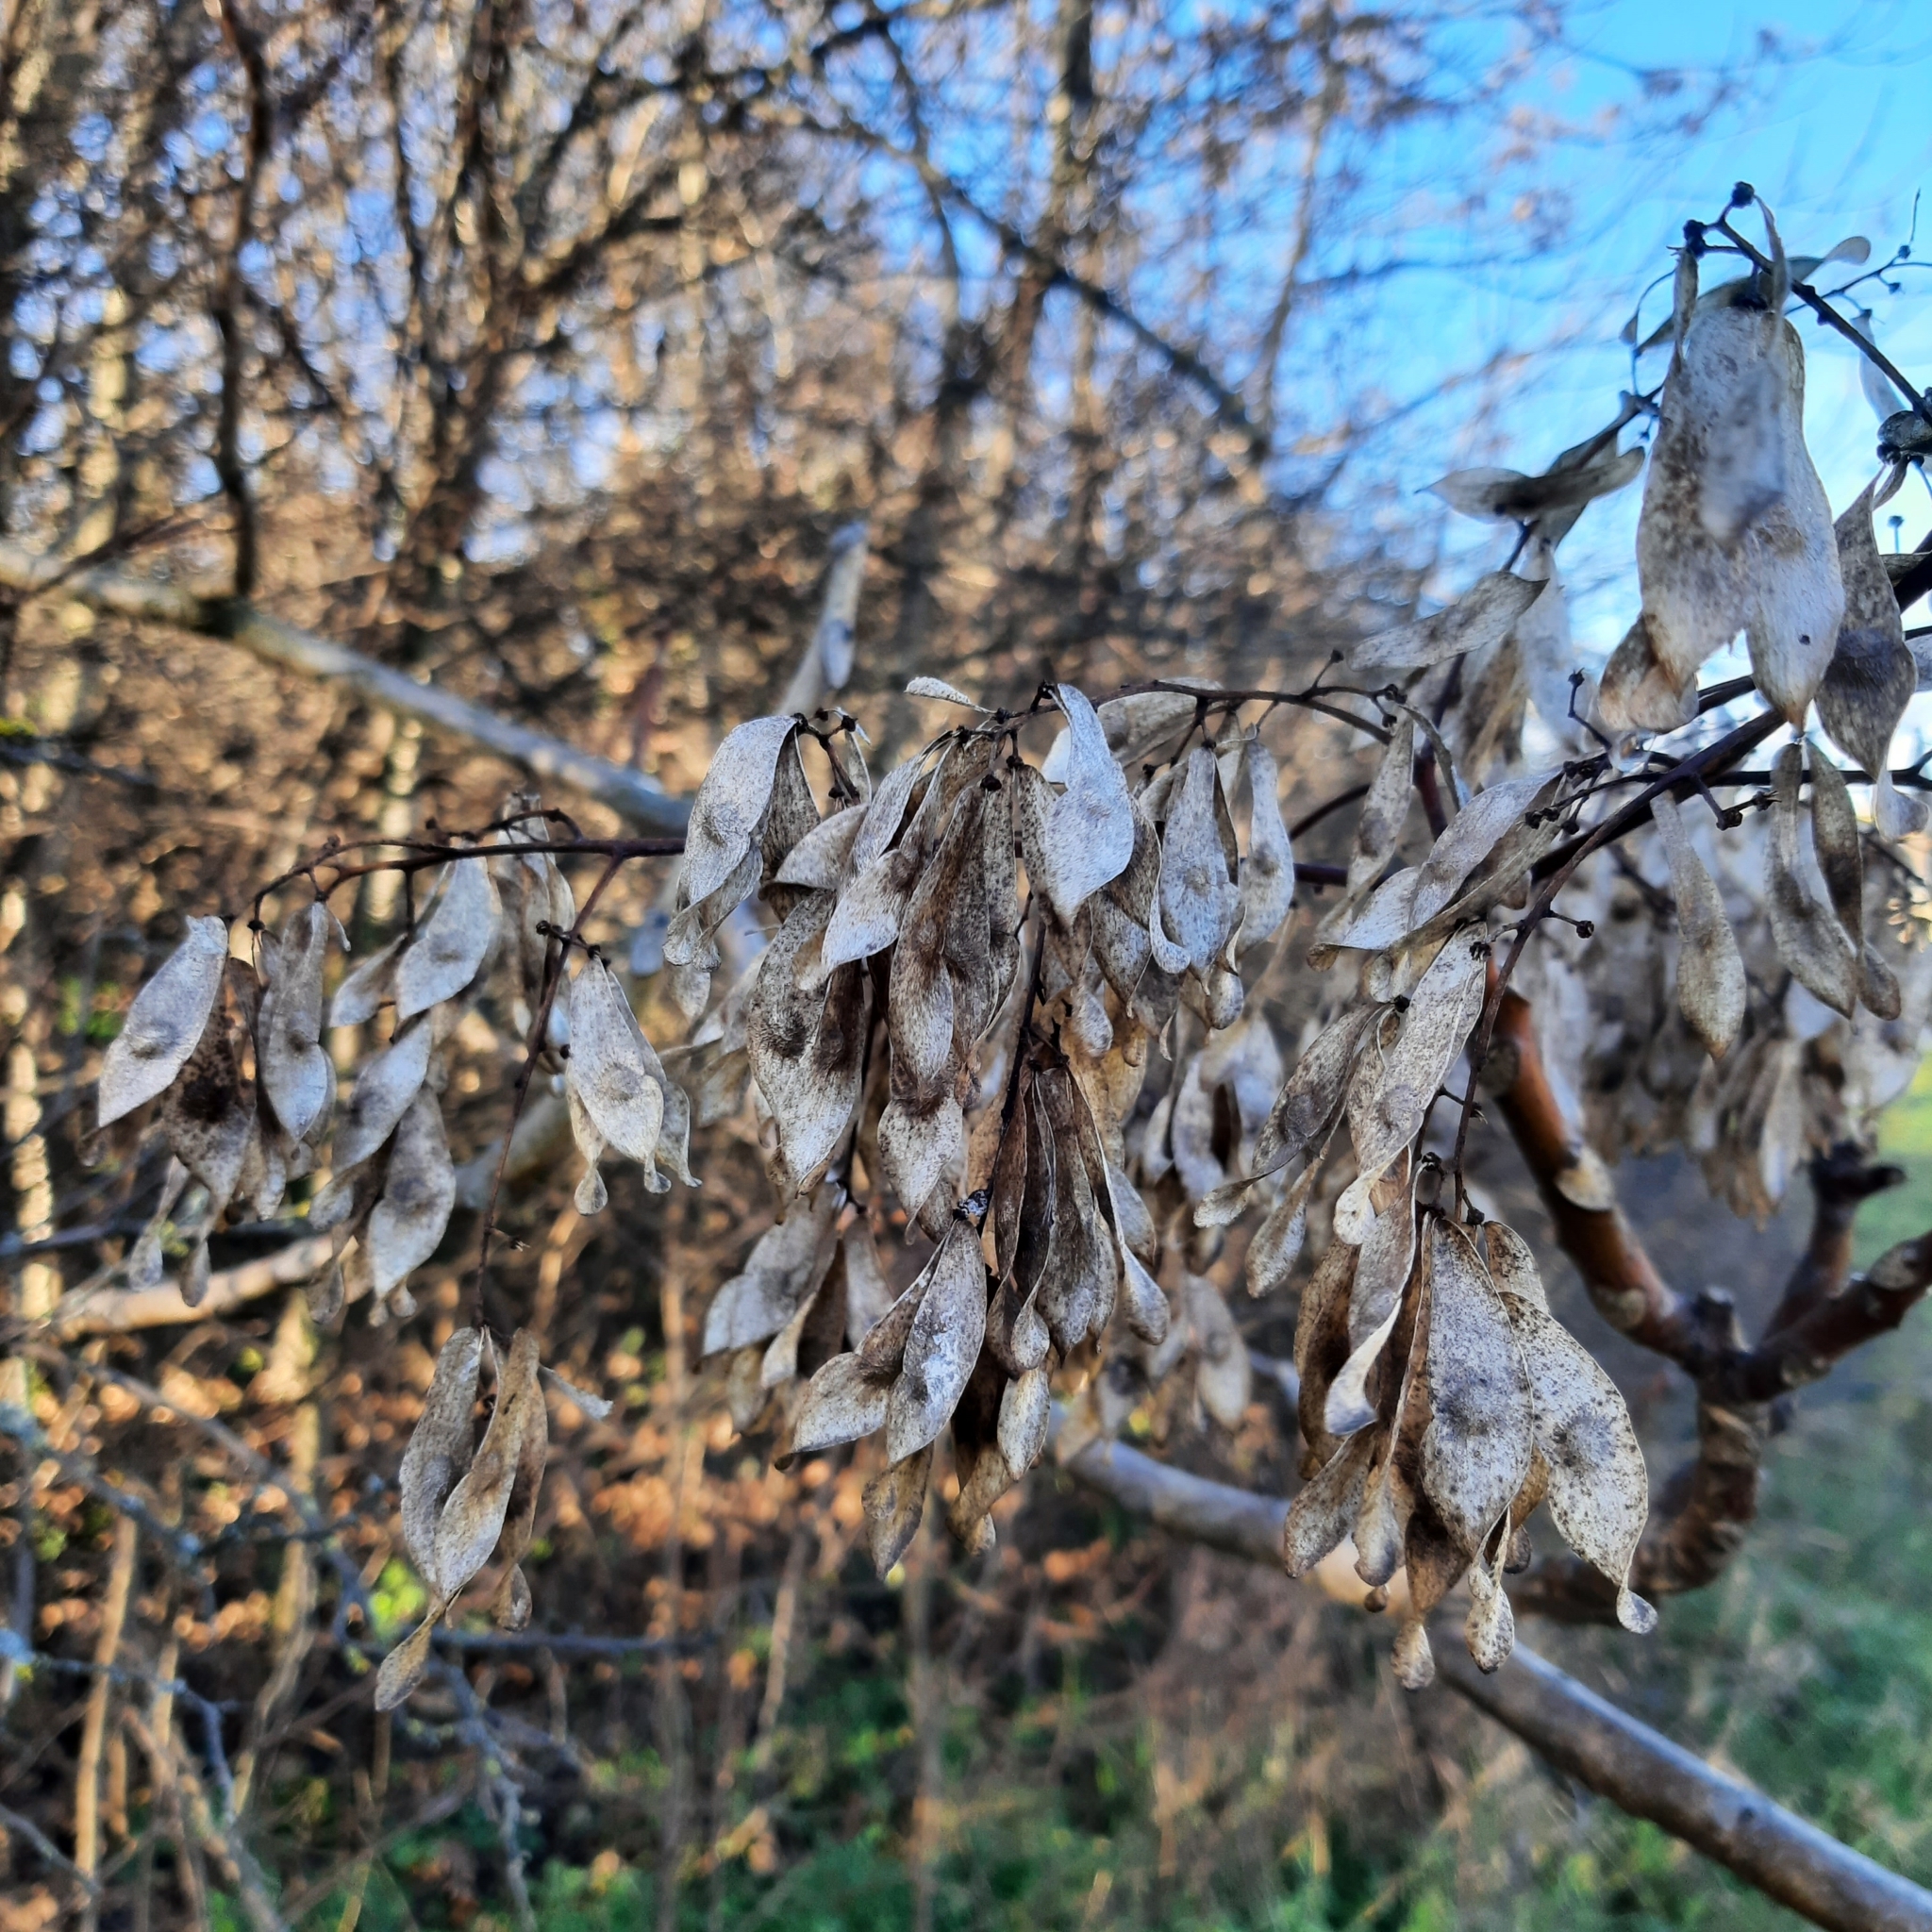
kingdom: Plantae
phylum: Tracheophyta
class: Magnoliopsida
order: Sapindales
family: Simaroubaceae
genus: Ailanthus
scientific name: Ailanthus altissima
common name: Tree-of-heaven
